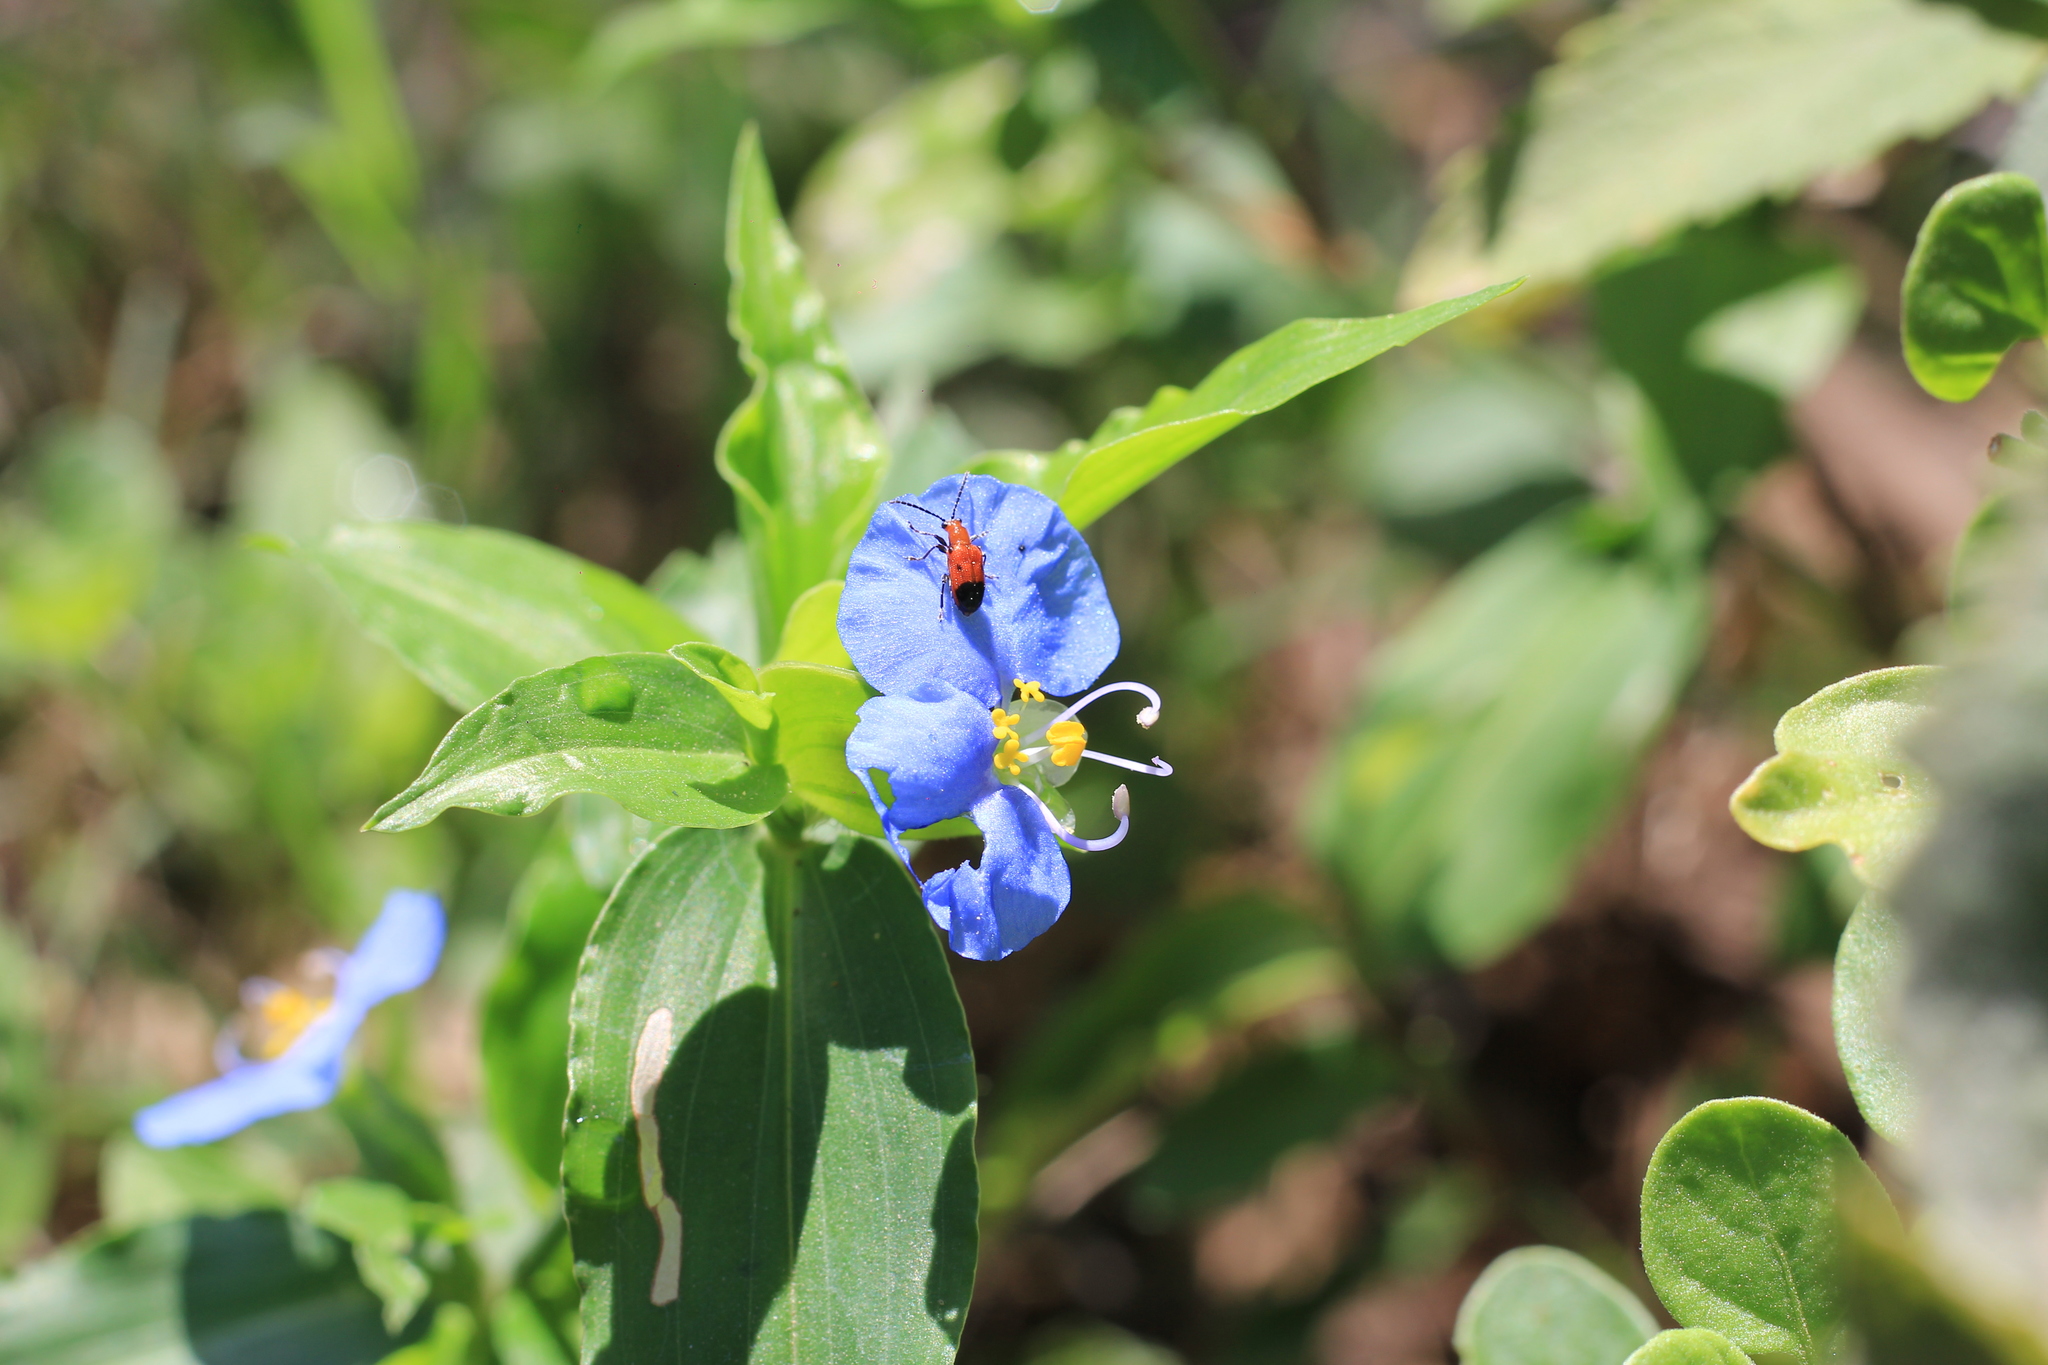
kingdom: Animalia
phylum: Arthropoda
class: Insecta
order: Coleoptera
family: Chrysomelidae
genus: Neolema
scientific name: Neolema dorsalis
